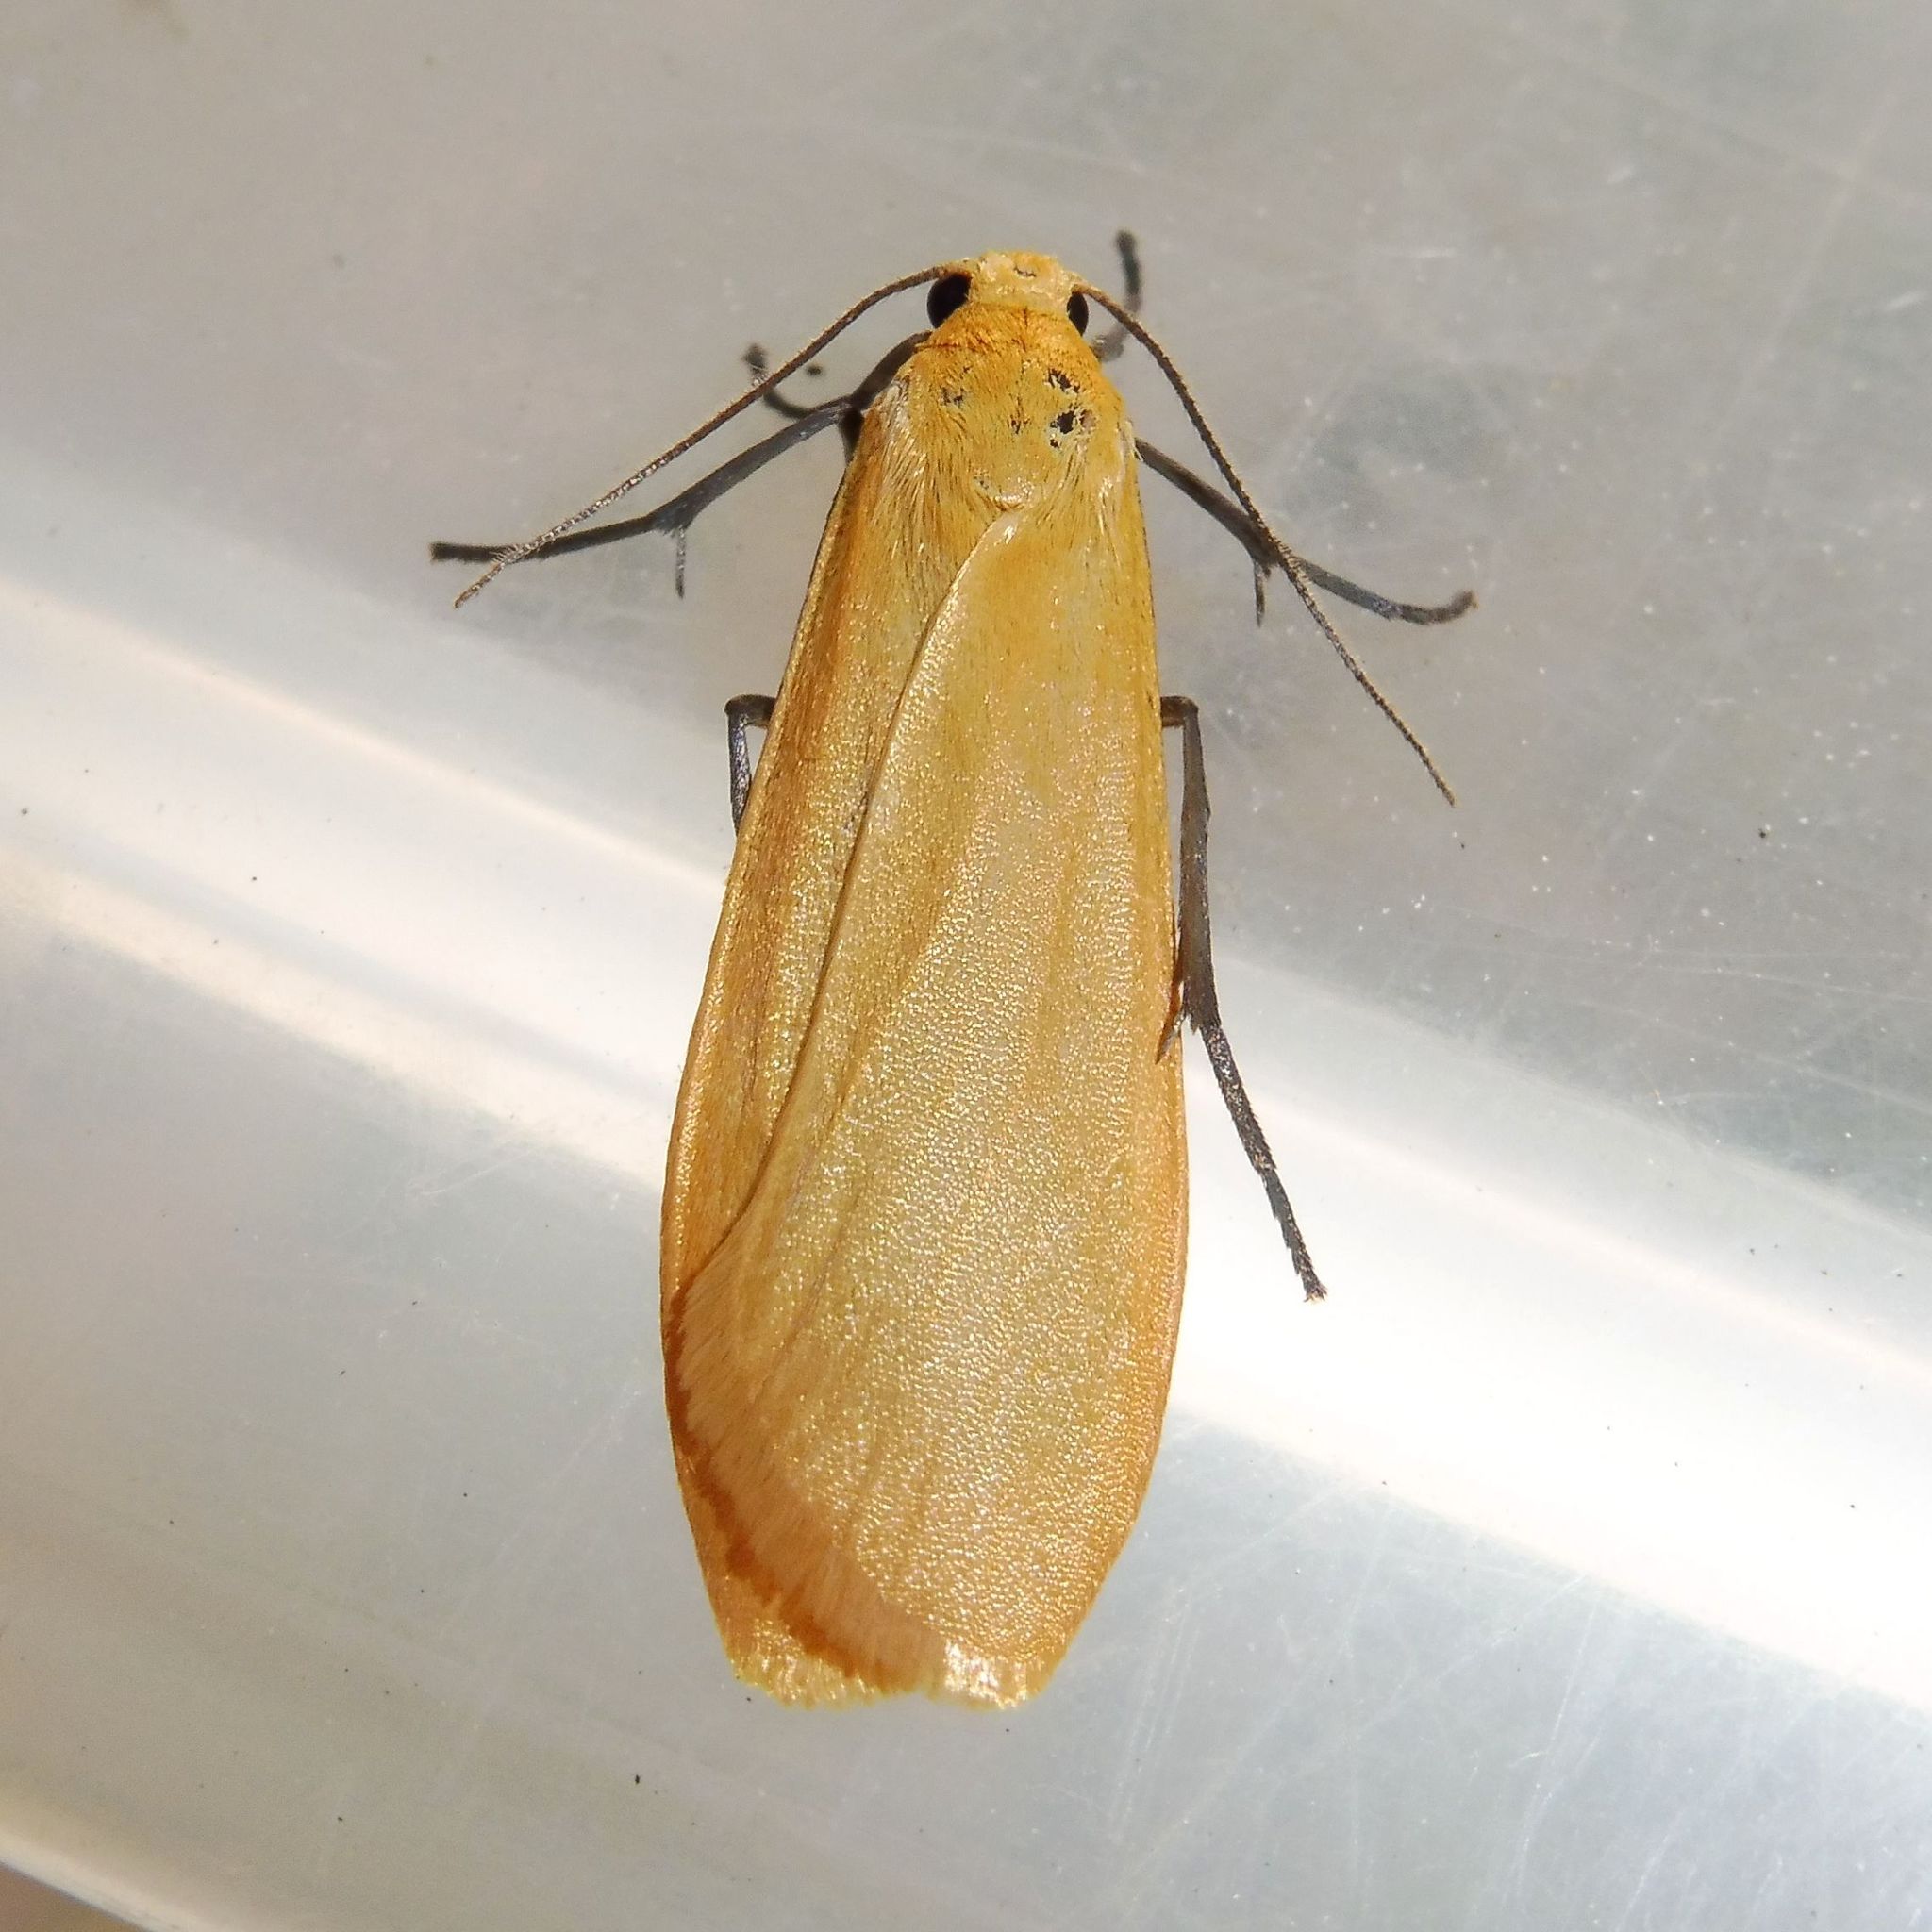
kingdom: Animalia
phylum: Arthropoda
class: Insecta
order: Lepidoptera
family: Erebidae
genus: Wittia
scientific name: Wittia sororcula
